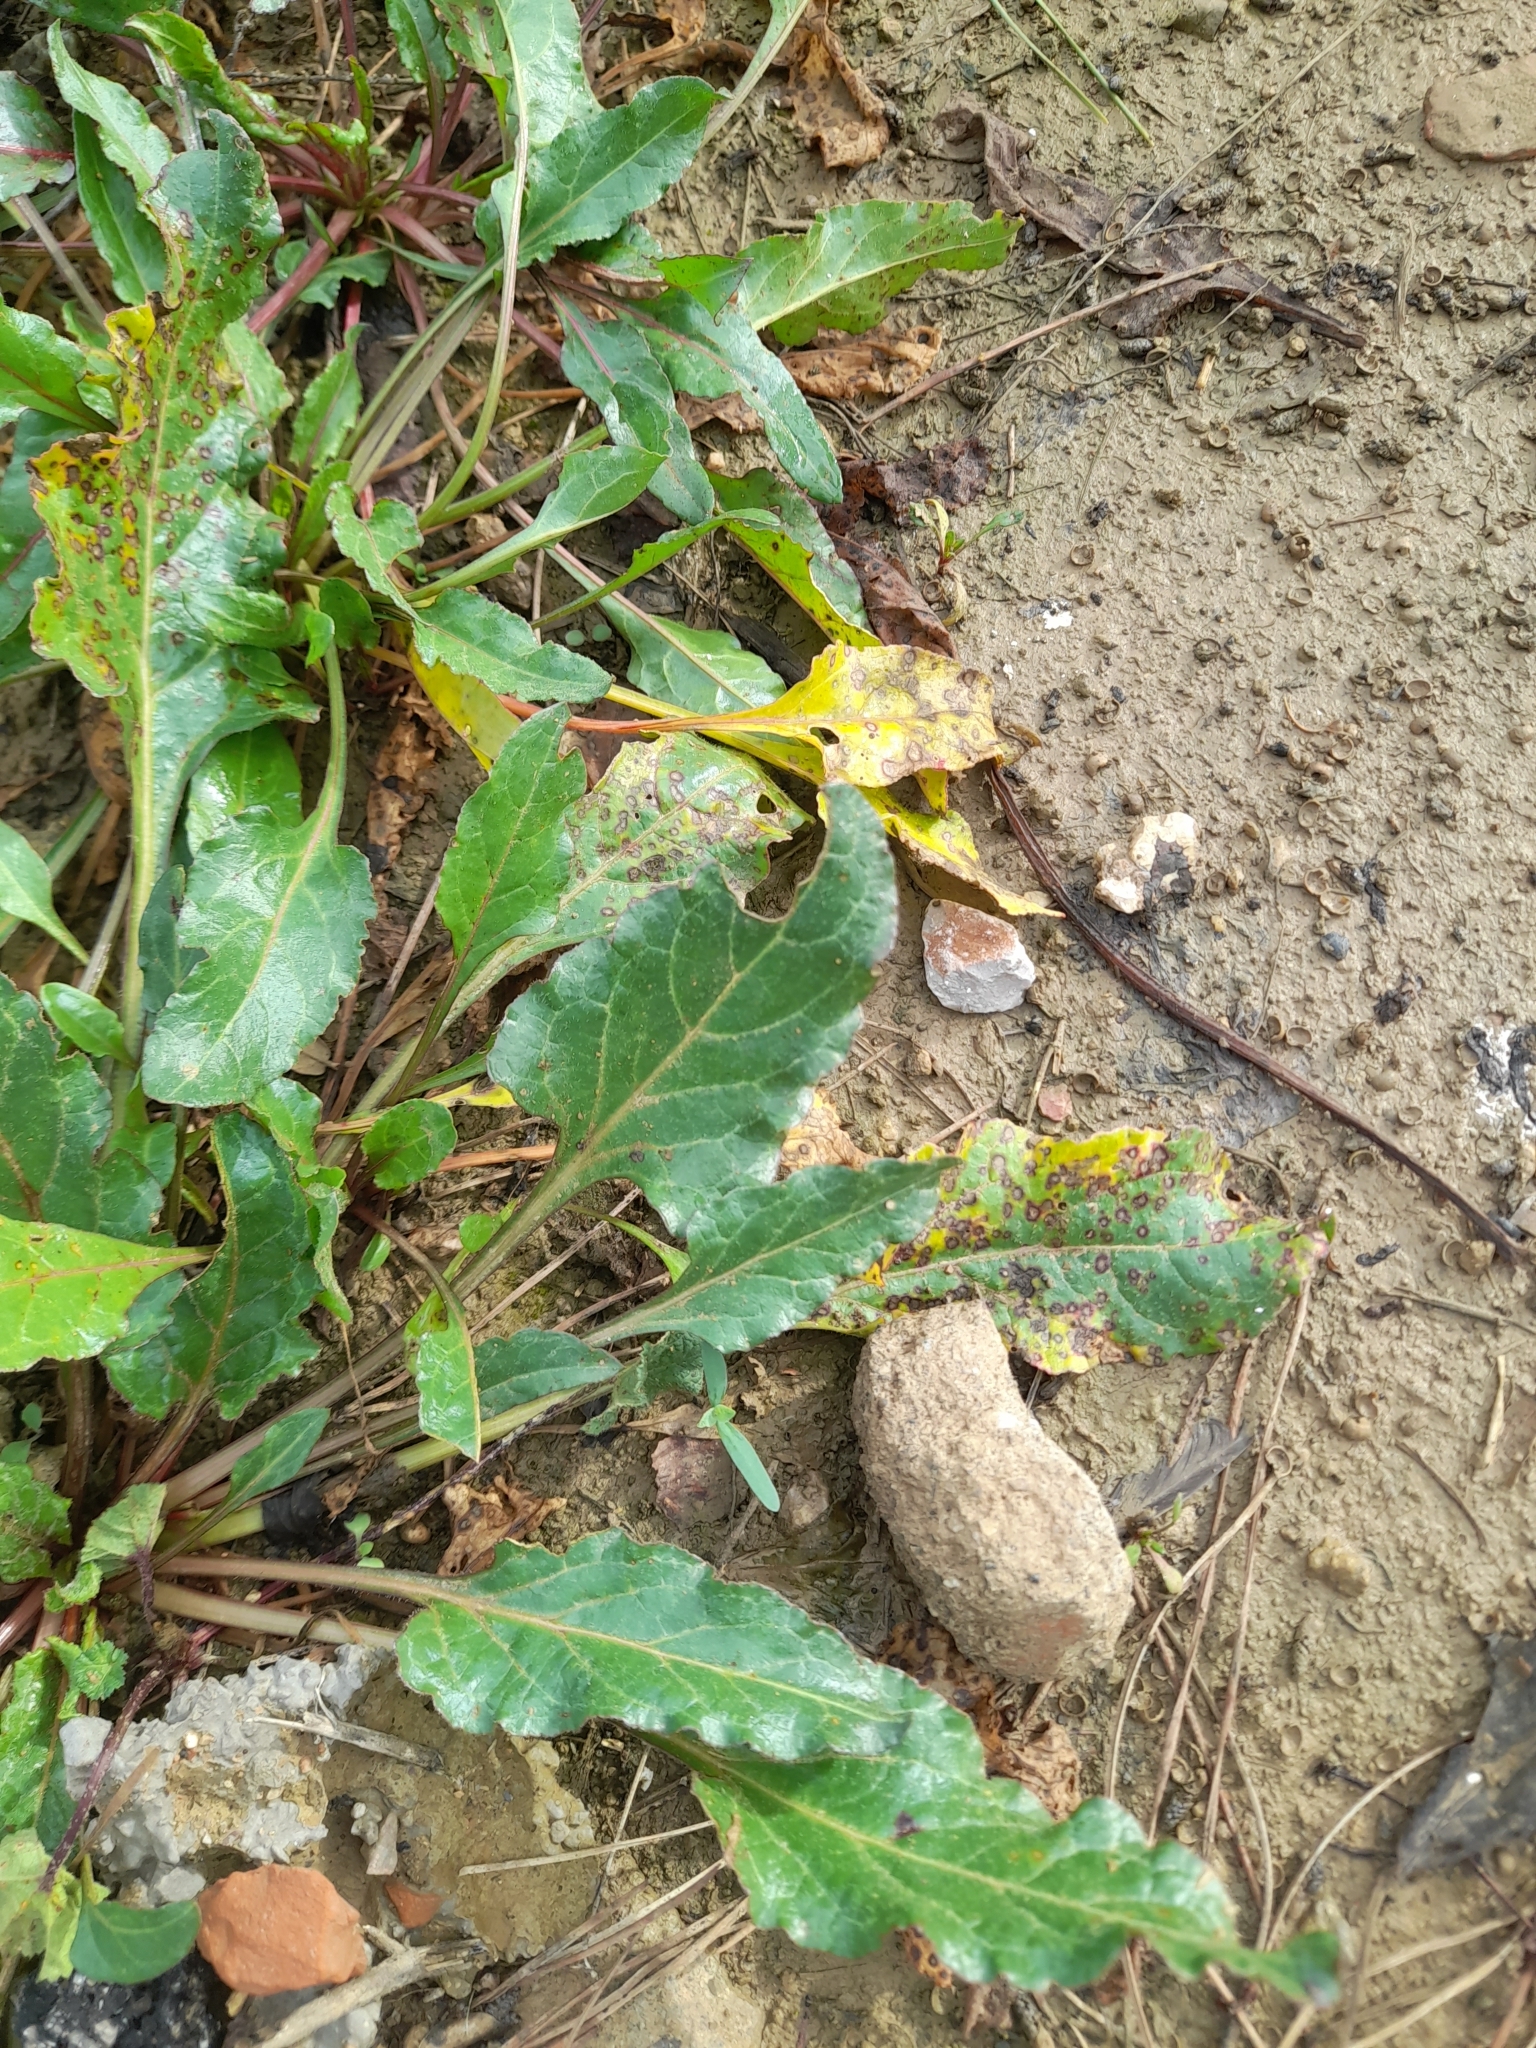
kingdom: Plantae
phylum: Tracheophyta
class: Magnoliopsida
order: Caryophyllales
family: Amaranthaceae
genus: Beta
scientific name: Beta vulgaris
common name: Beet
